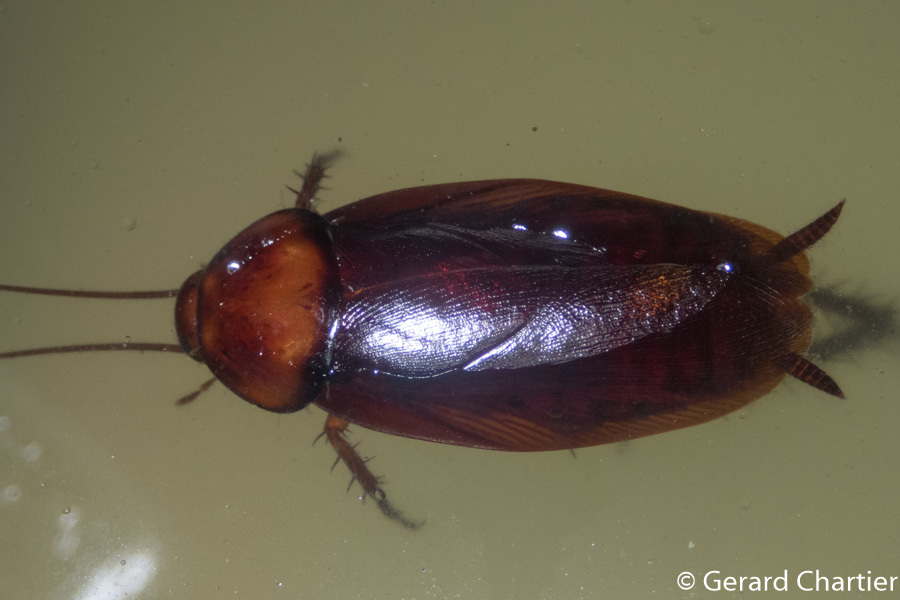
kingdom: Animalia
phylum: Arthropoda
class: Insecta
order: Blattodea
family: Blattidae
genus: Periplaneta
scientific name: Periplaneta americana
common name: American cockroach
